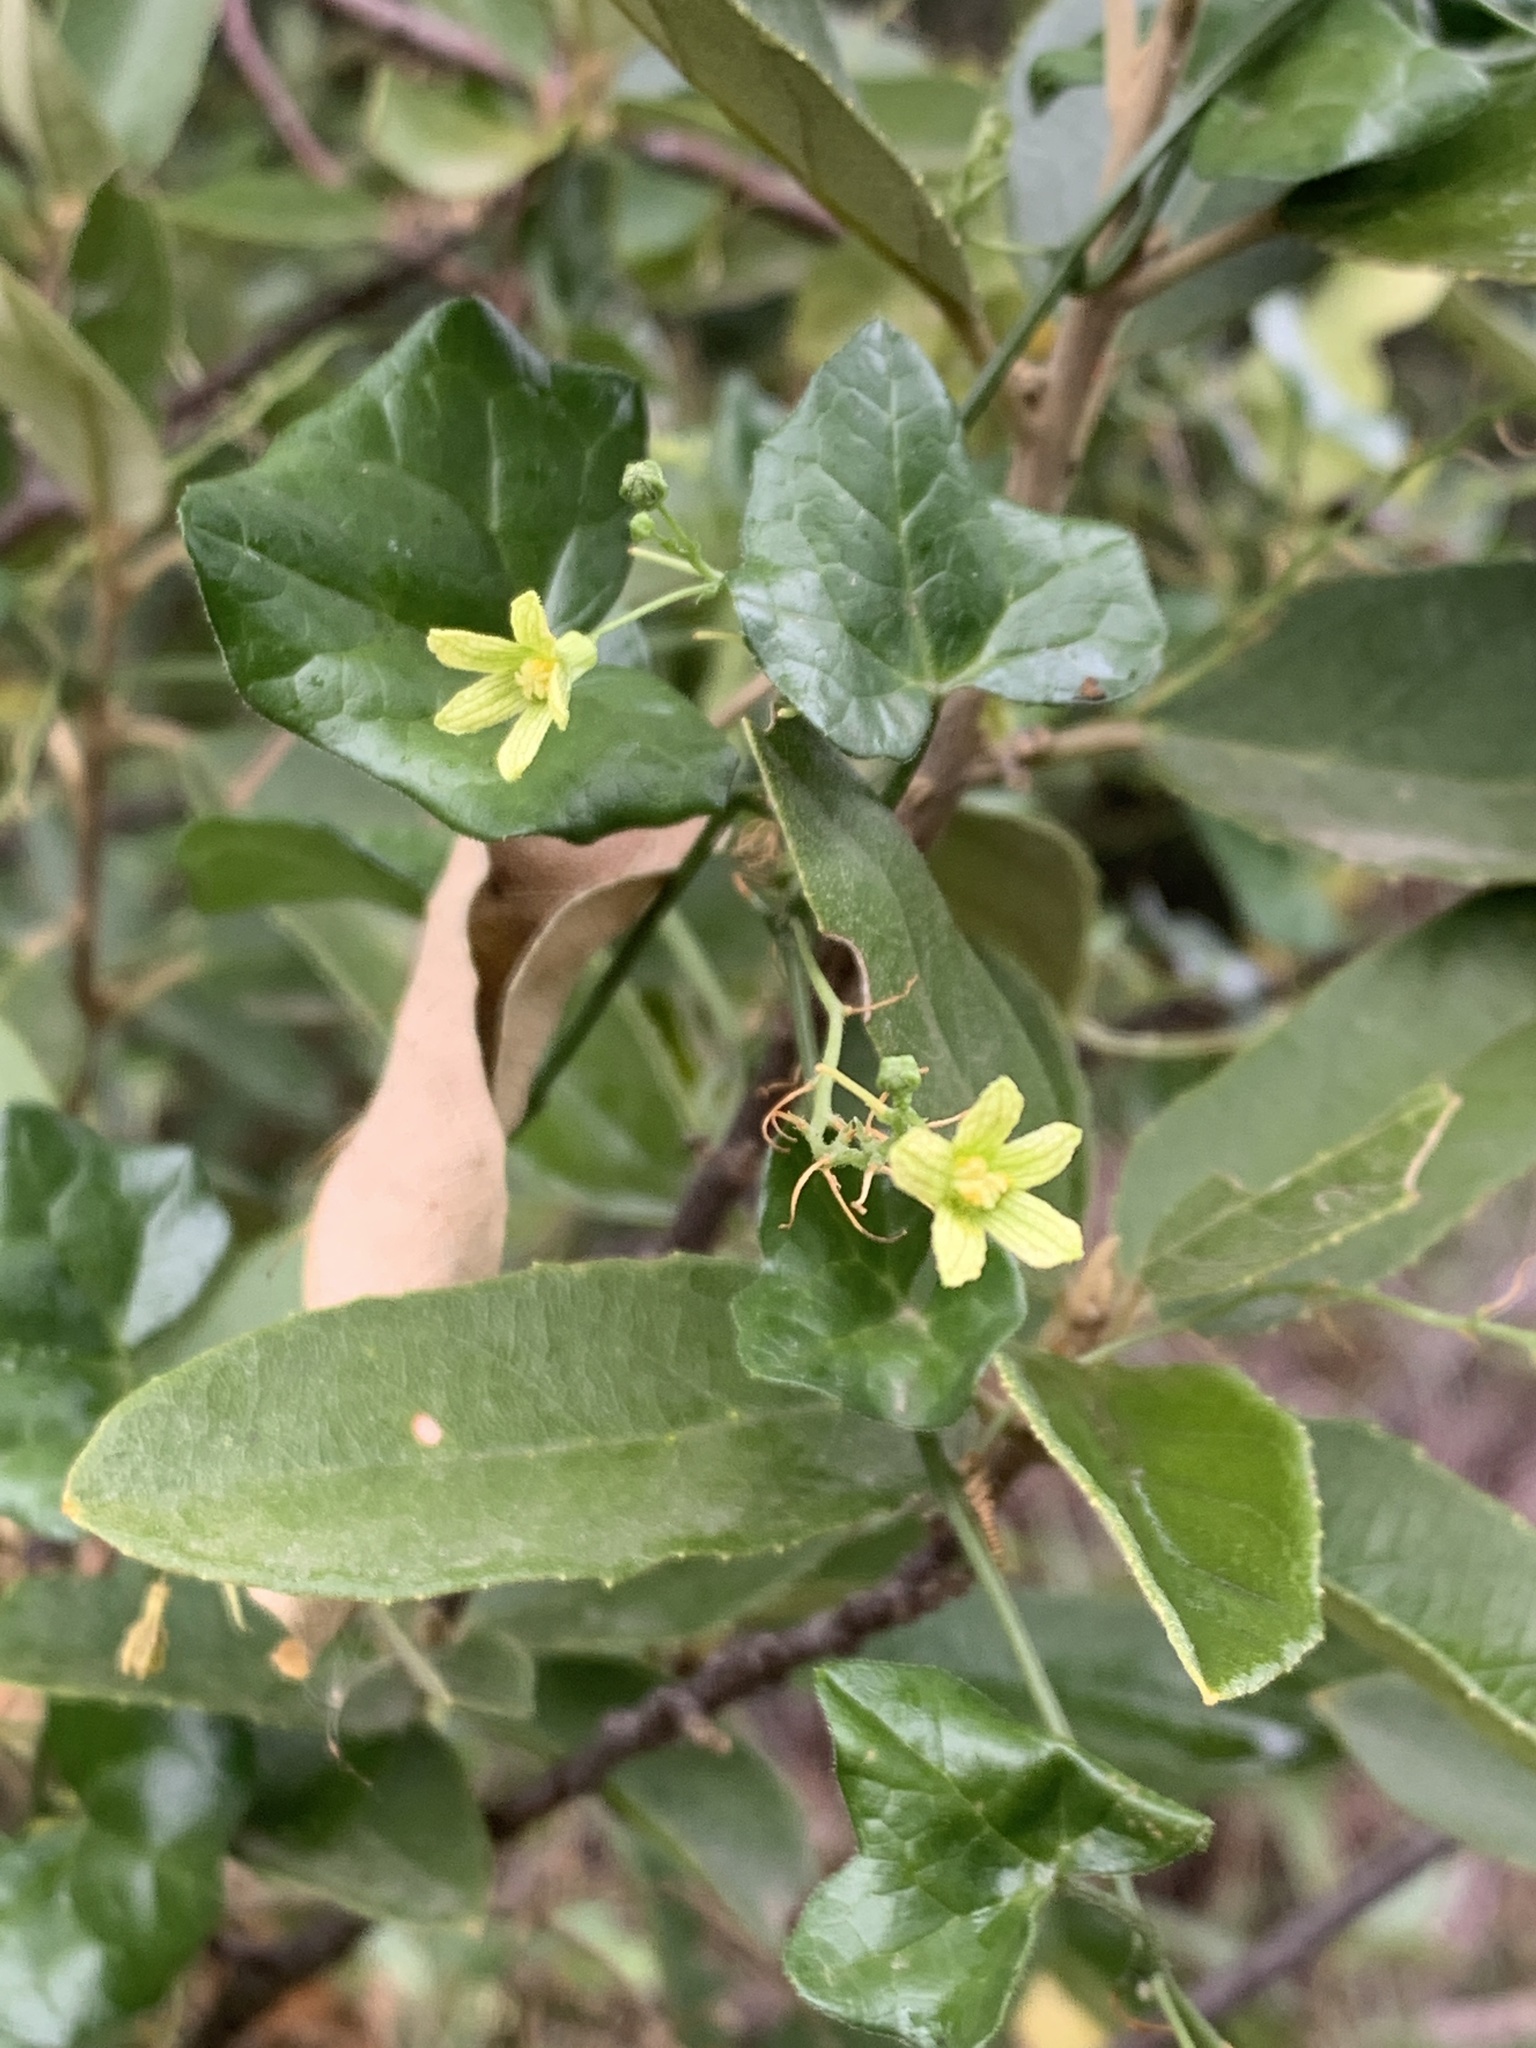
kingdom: Plantae
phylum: Tracheophyta
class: Magnoliopsida
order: Cucurbitales
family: Cucurbitaceae
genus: Kedrostis
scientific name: Kedrostis nana
